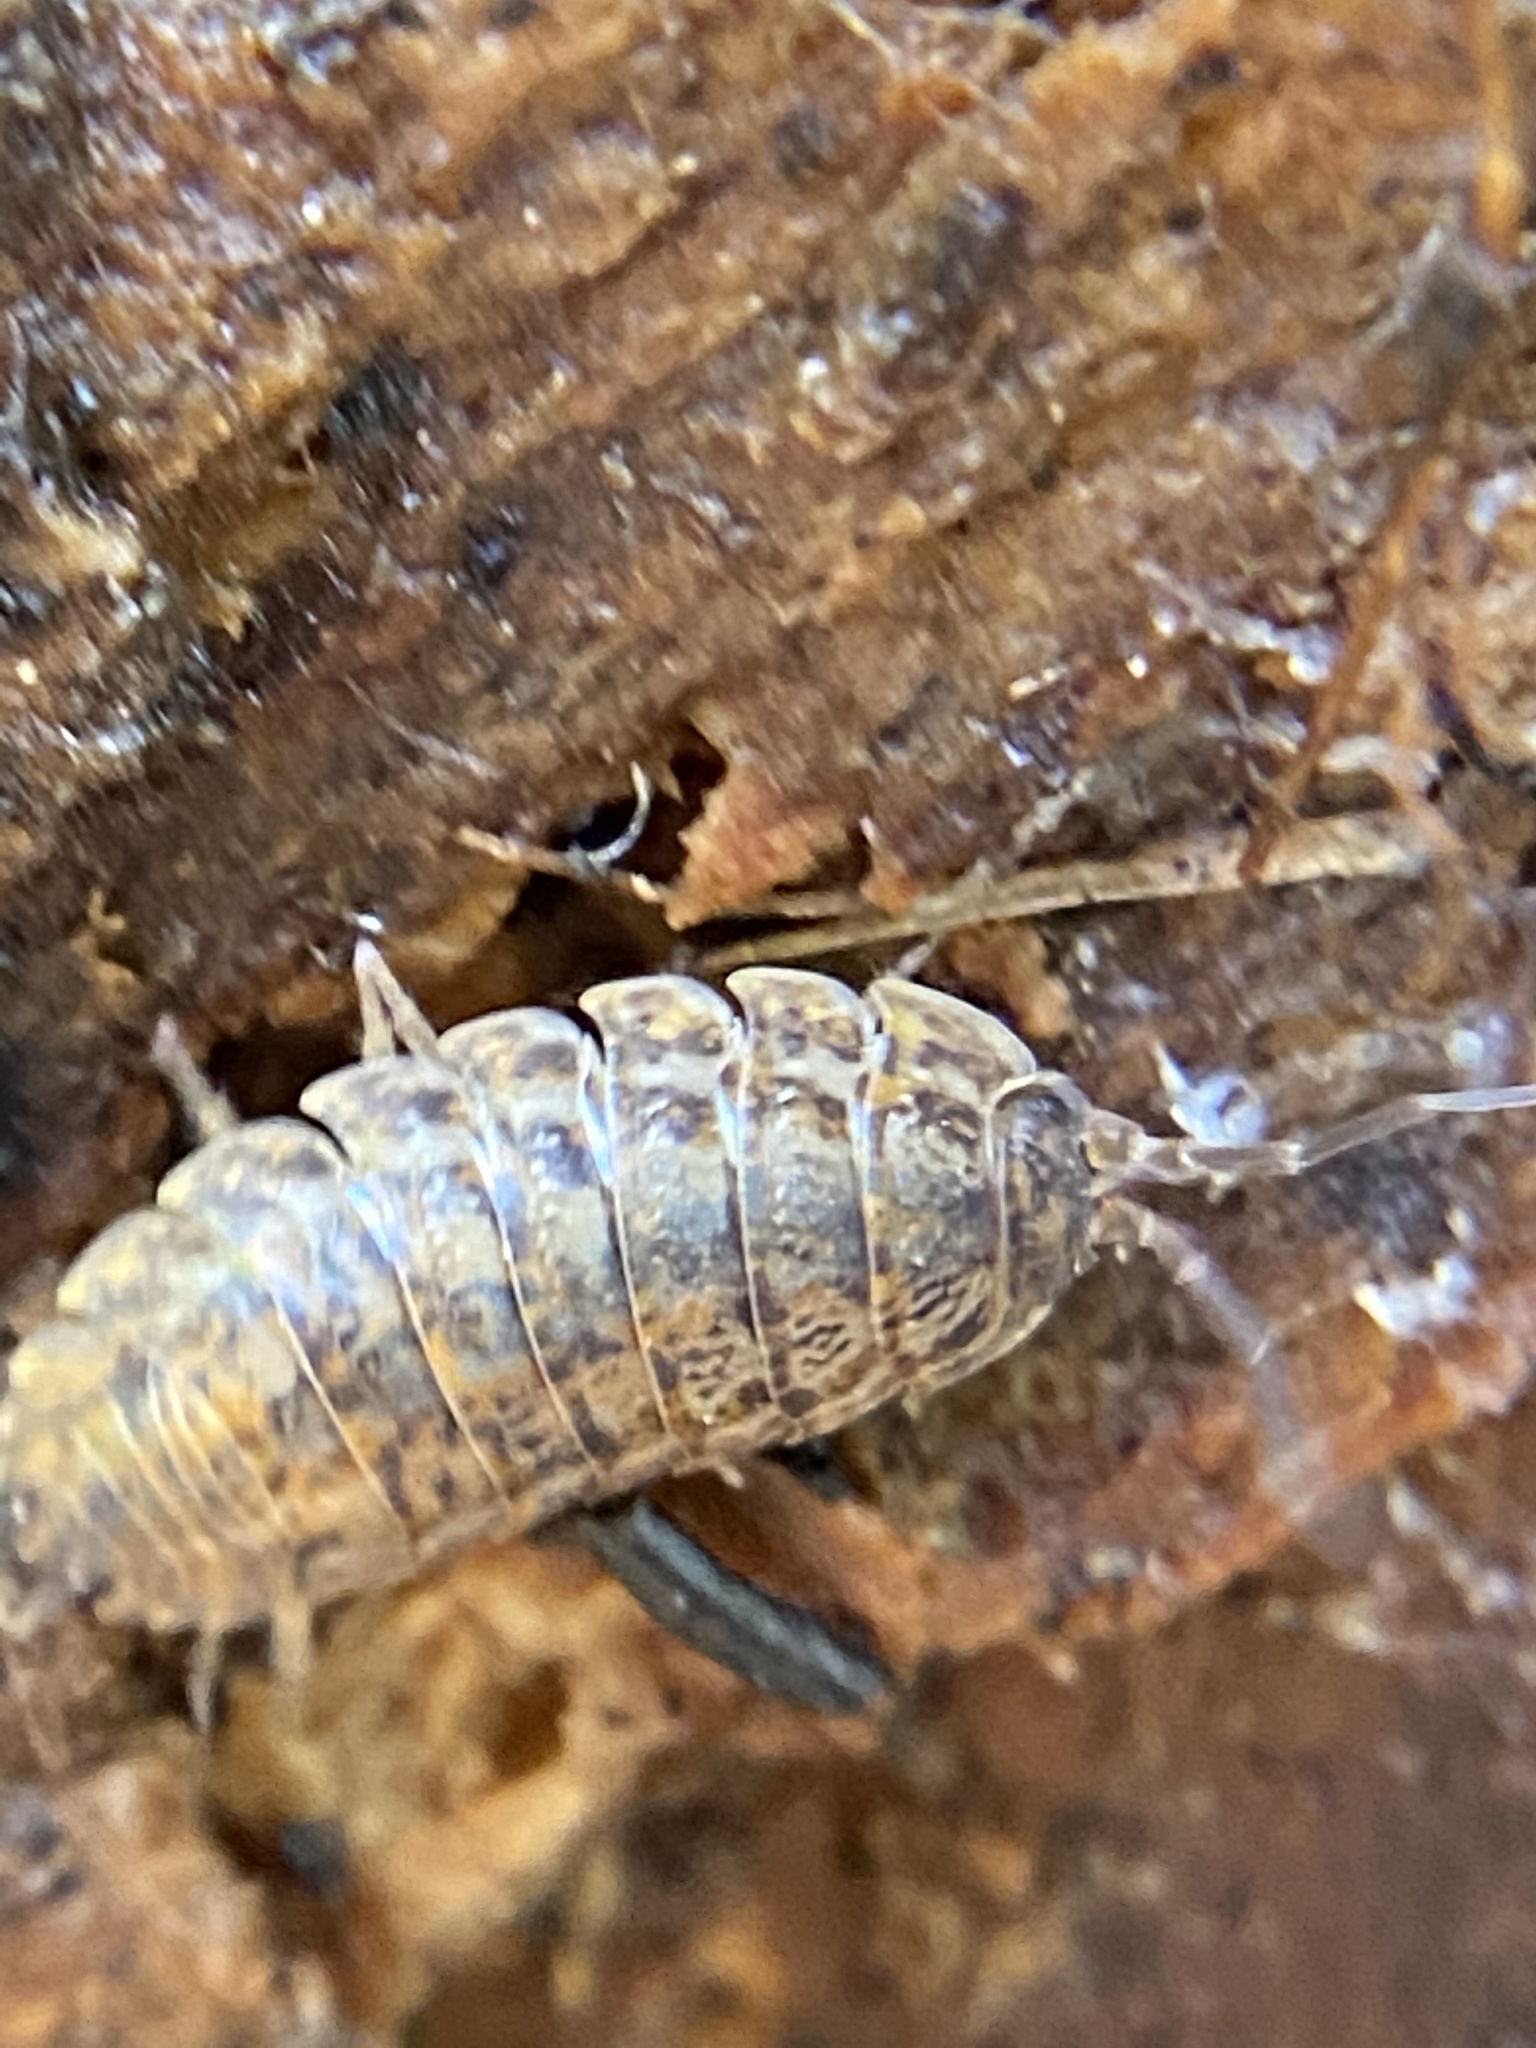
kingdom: Animalia
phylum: Arthropoda
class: Malacostraca
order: Isopoda
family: Trachelipodidae
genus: Trachelipus
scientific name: Trachelipus rathkii
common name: Isopod
